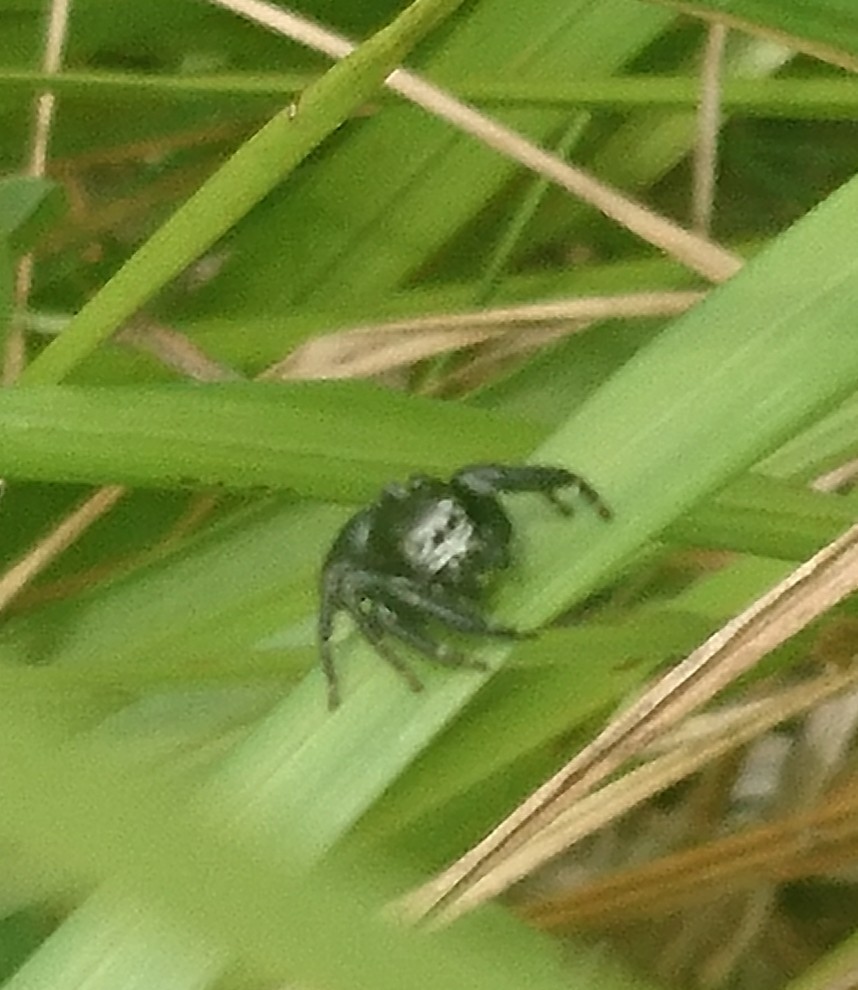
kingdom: Animalia
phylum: Arthropoda
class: Arachnida
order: Araneae
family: Salticidae
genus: Evarcha
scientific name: Evarcha arcuata
